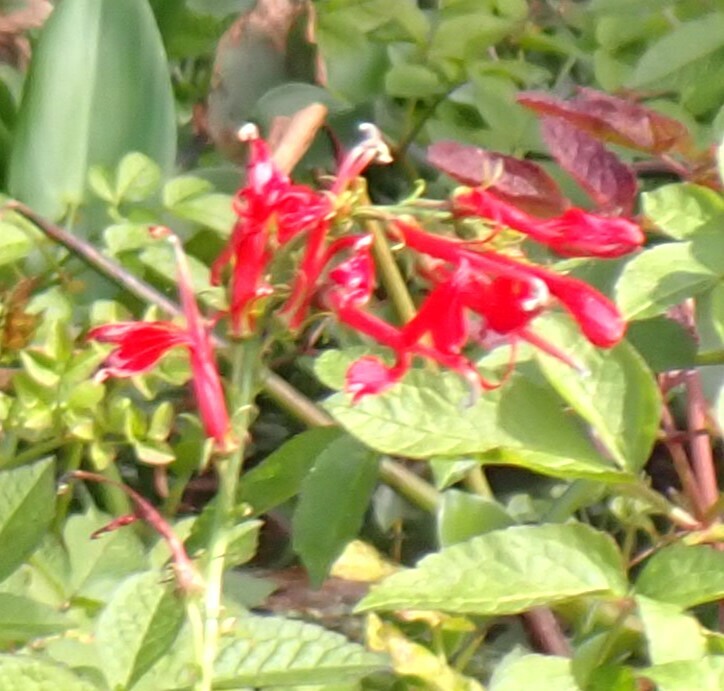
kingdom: Plantae
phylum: Tracheophyta
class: Magnoliopsida
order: Asterales
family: Campanulaceae
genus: Lobelia
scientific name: Lobelia cardinalis
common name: Cardinal flower
